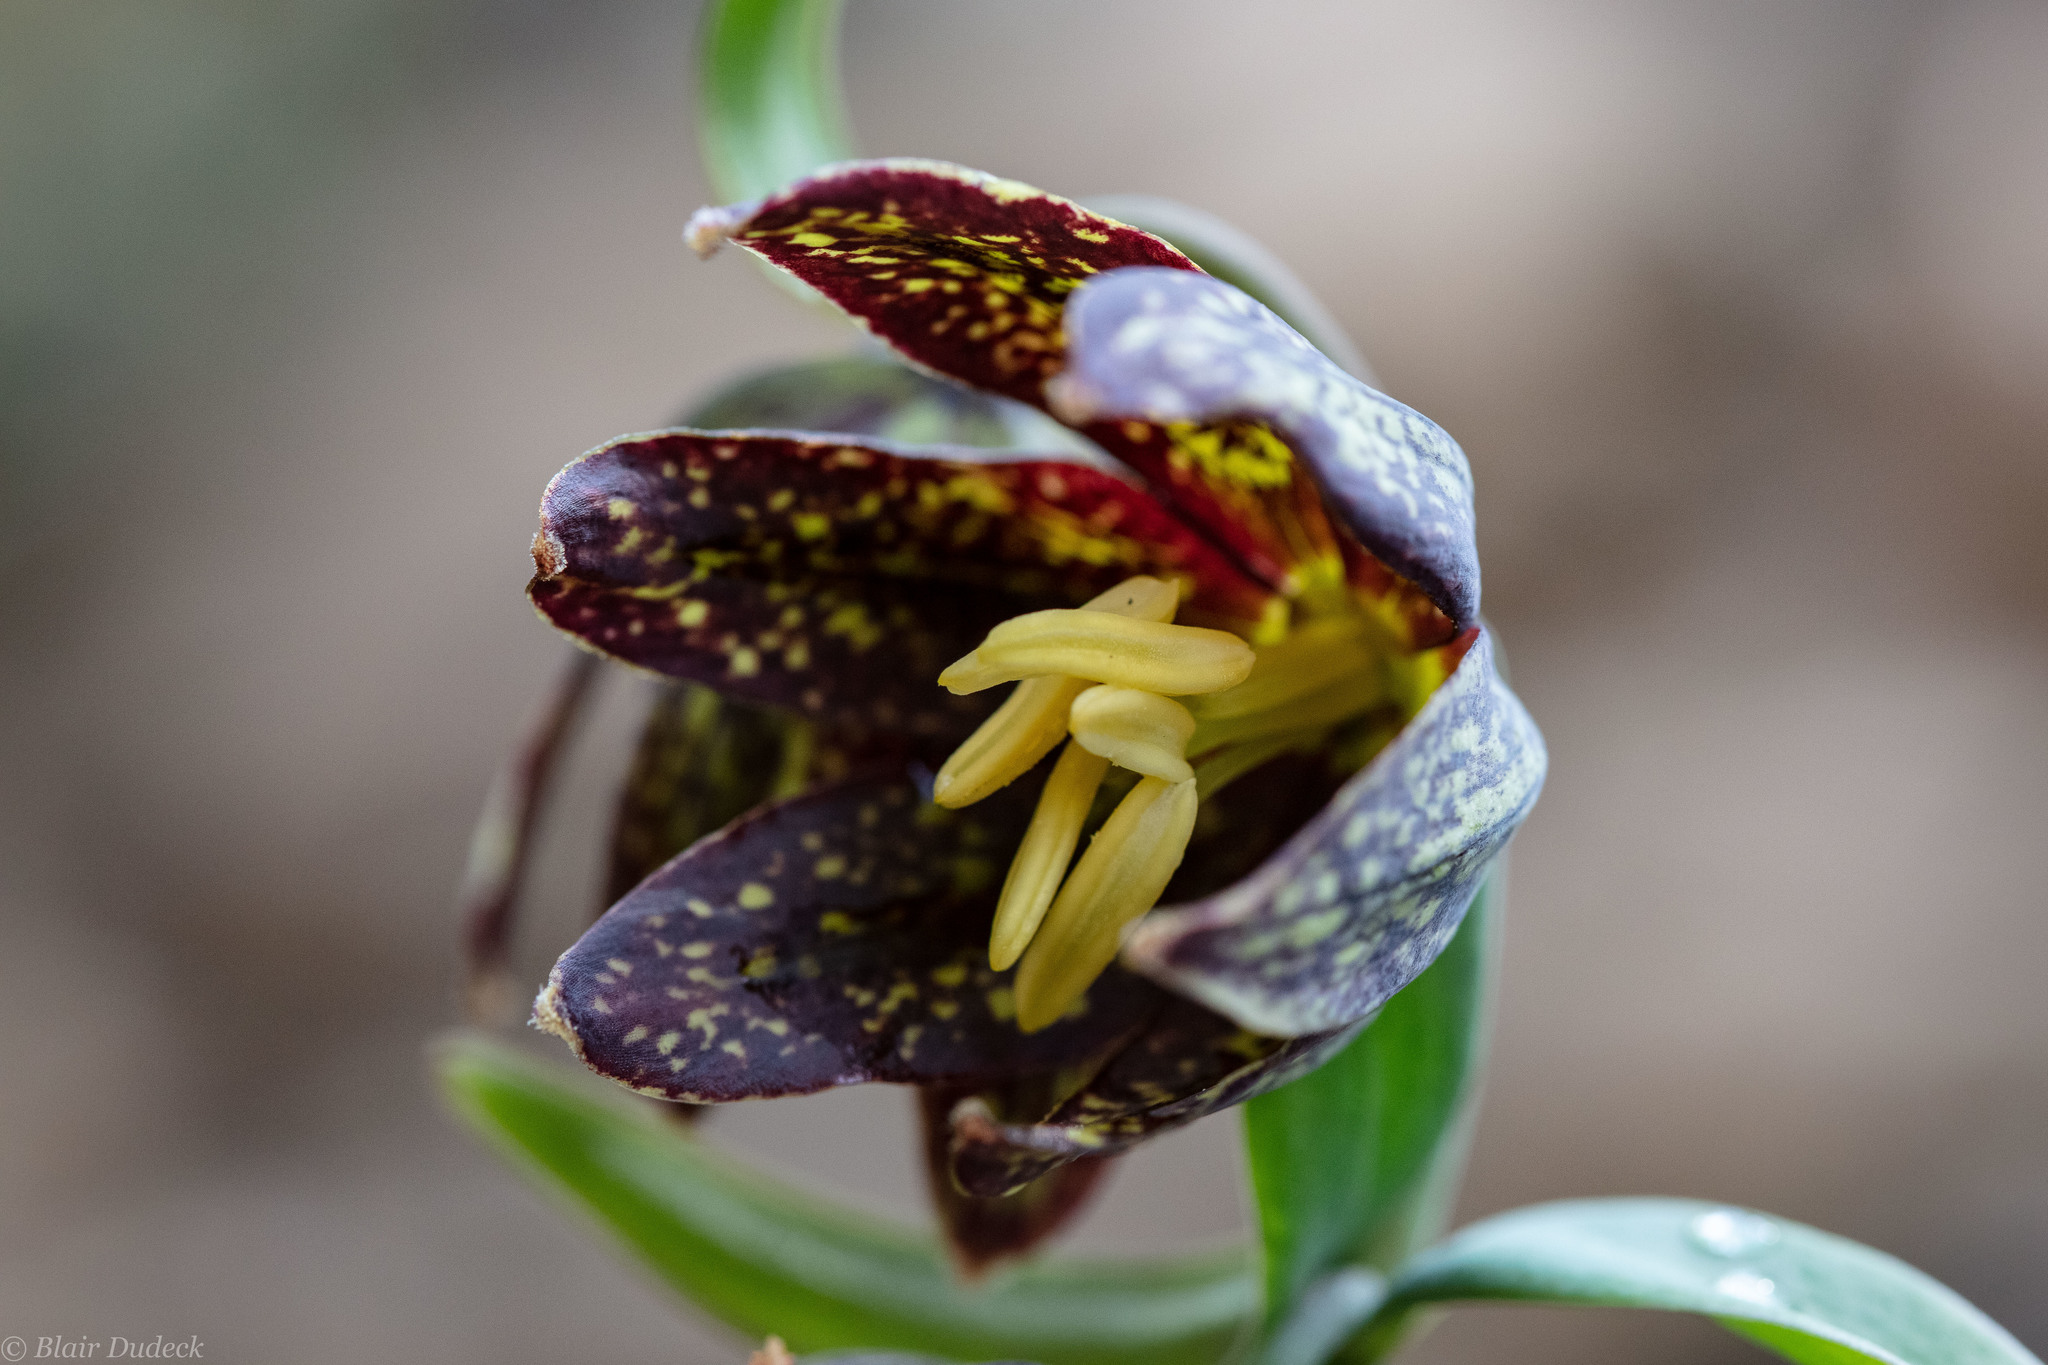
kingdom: Plantae
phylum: Tracheophyta
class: Liliopsida
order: Liliales
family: Liliaceae
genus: Fritillaria
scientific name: Fritillaria affinis
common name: Ojai fritillary
